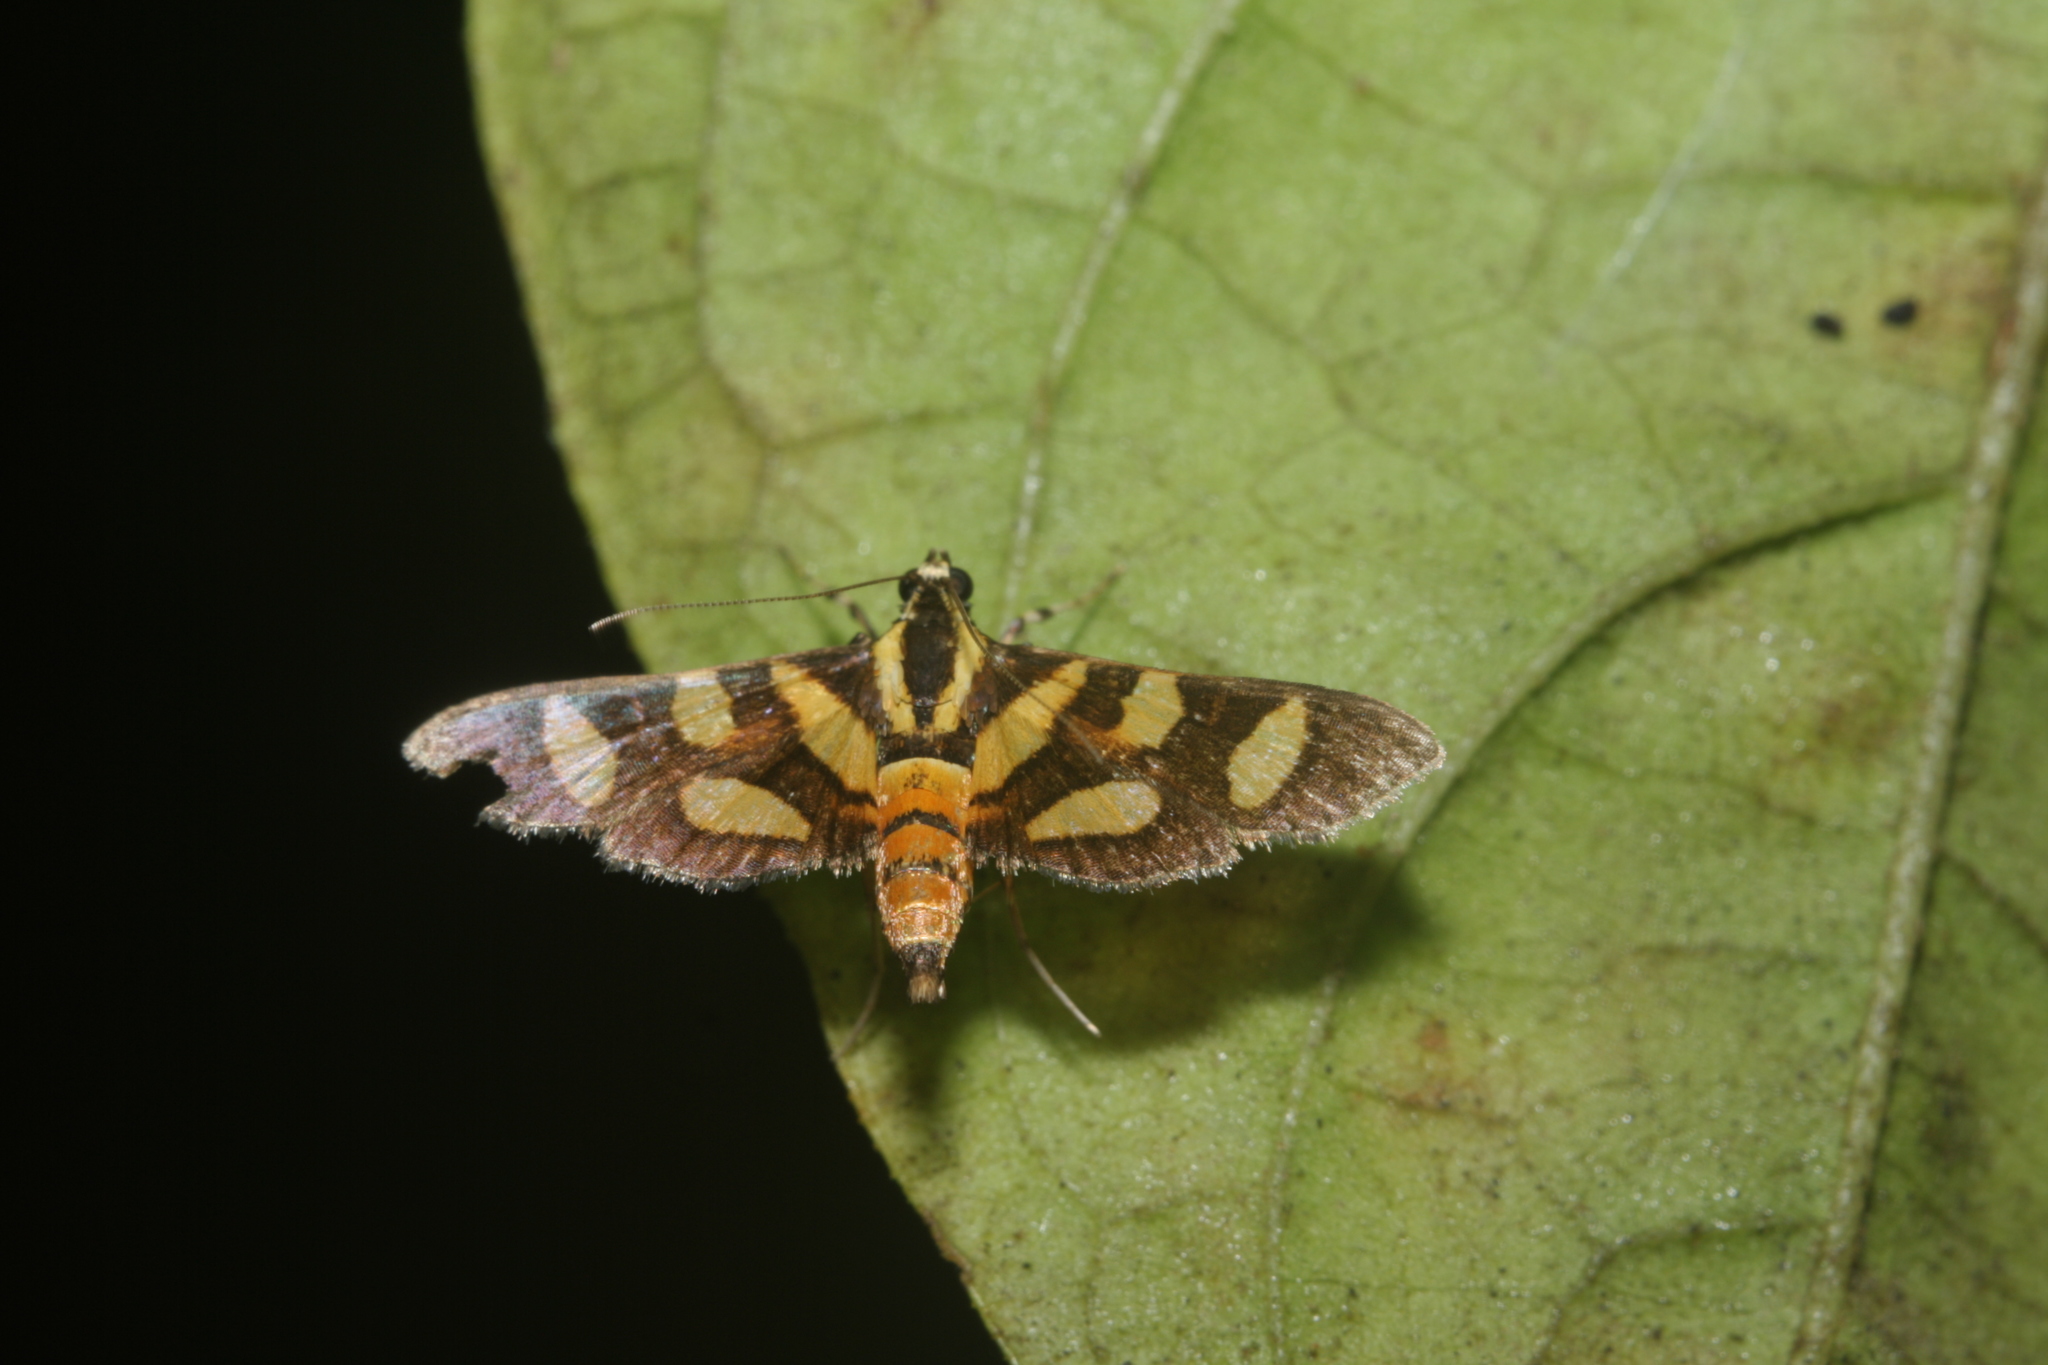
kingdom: Animalia
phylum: Arthropoda
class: Insecta
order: Lepidoptera
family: Crambidae
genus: Syngamia
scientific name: Syngamia florella
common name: Orange-spotted flower moth
